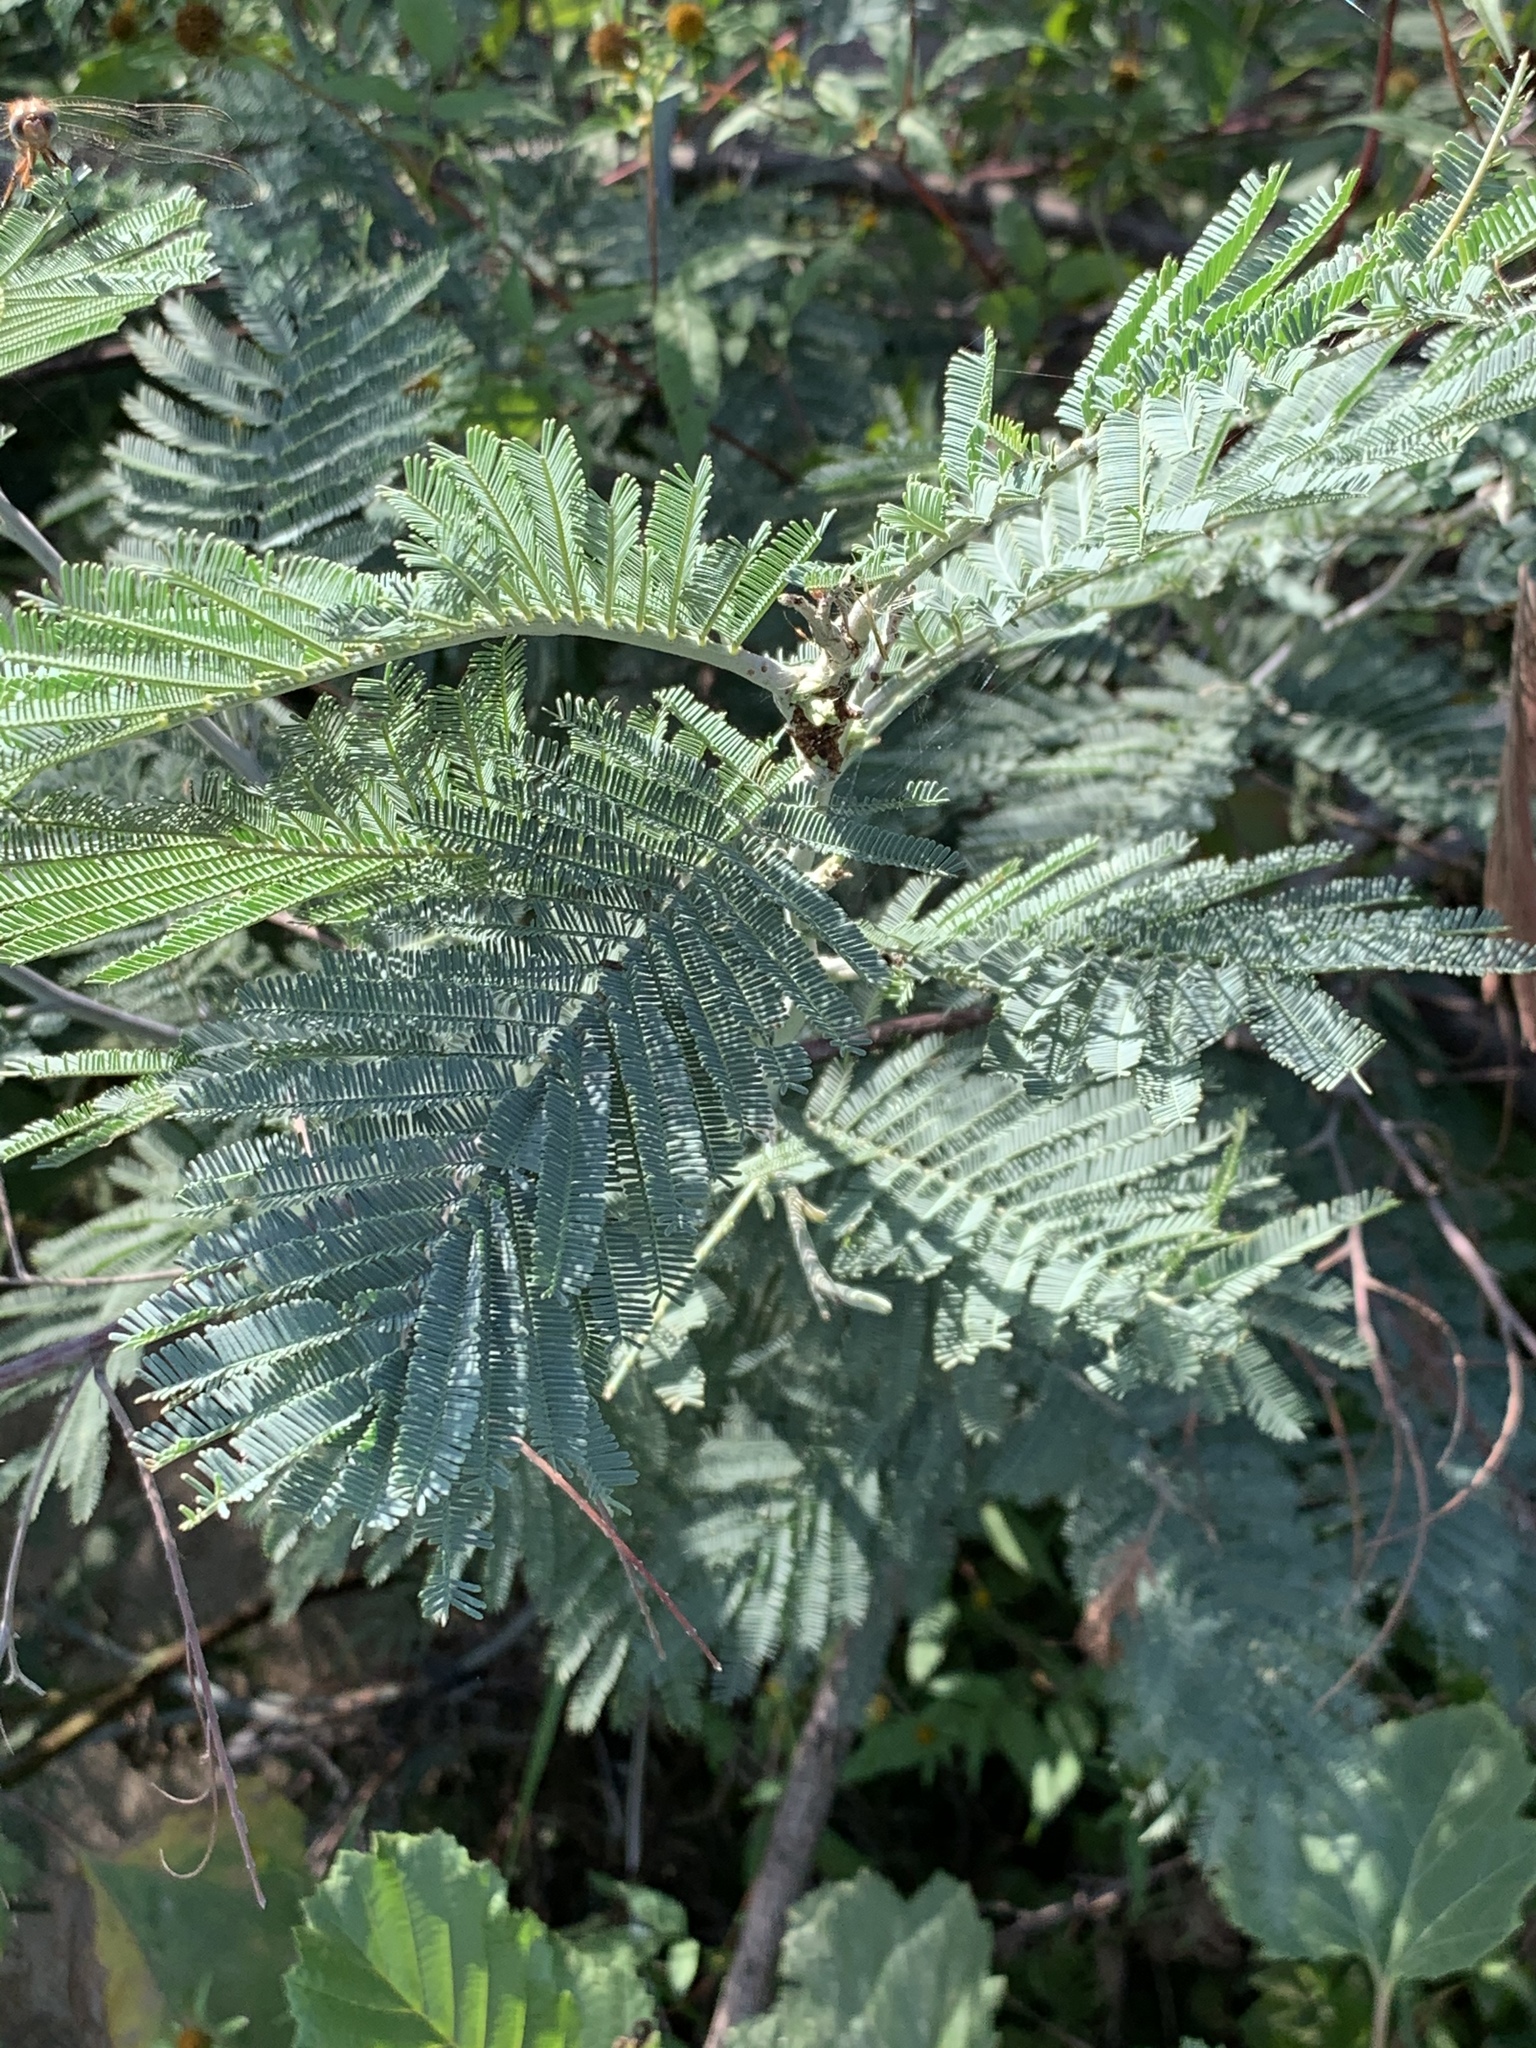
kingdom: Plantae
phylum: Tracheophyta
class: Magnoliopsida
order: Fabales
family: Fabaceae
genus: Acacia
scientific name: Acacia dealbata
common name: Silver wattle
